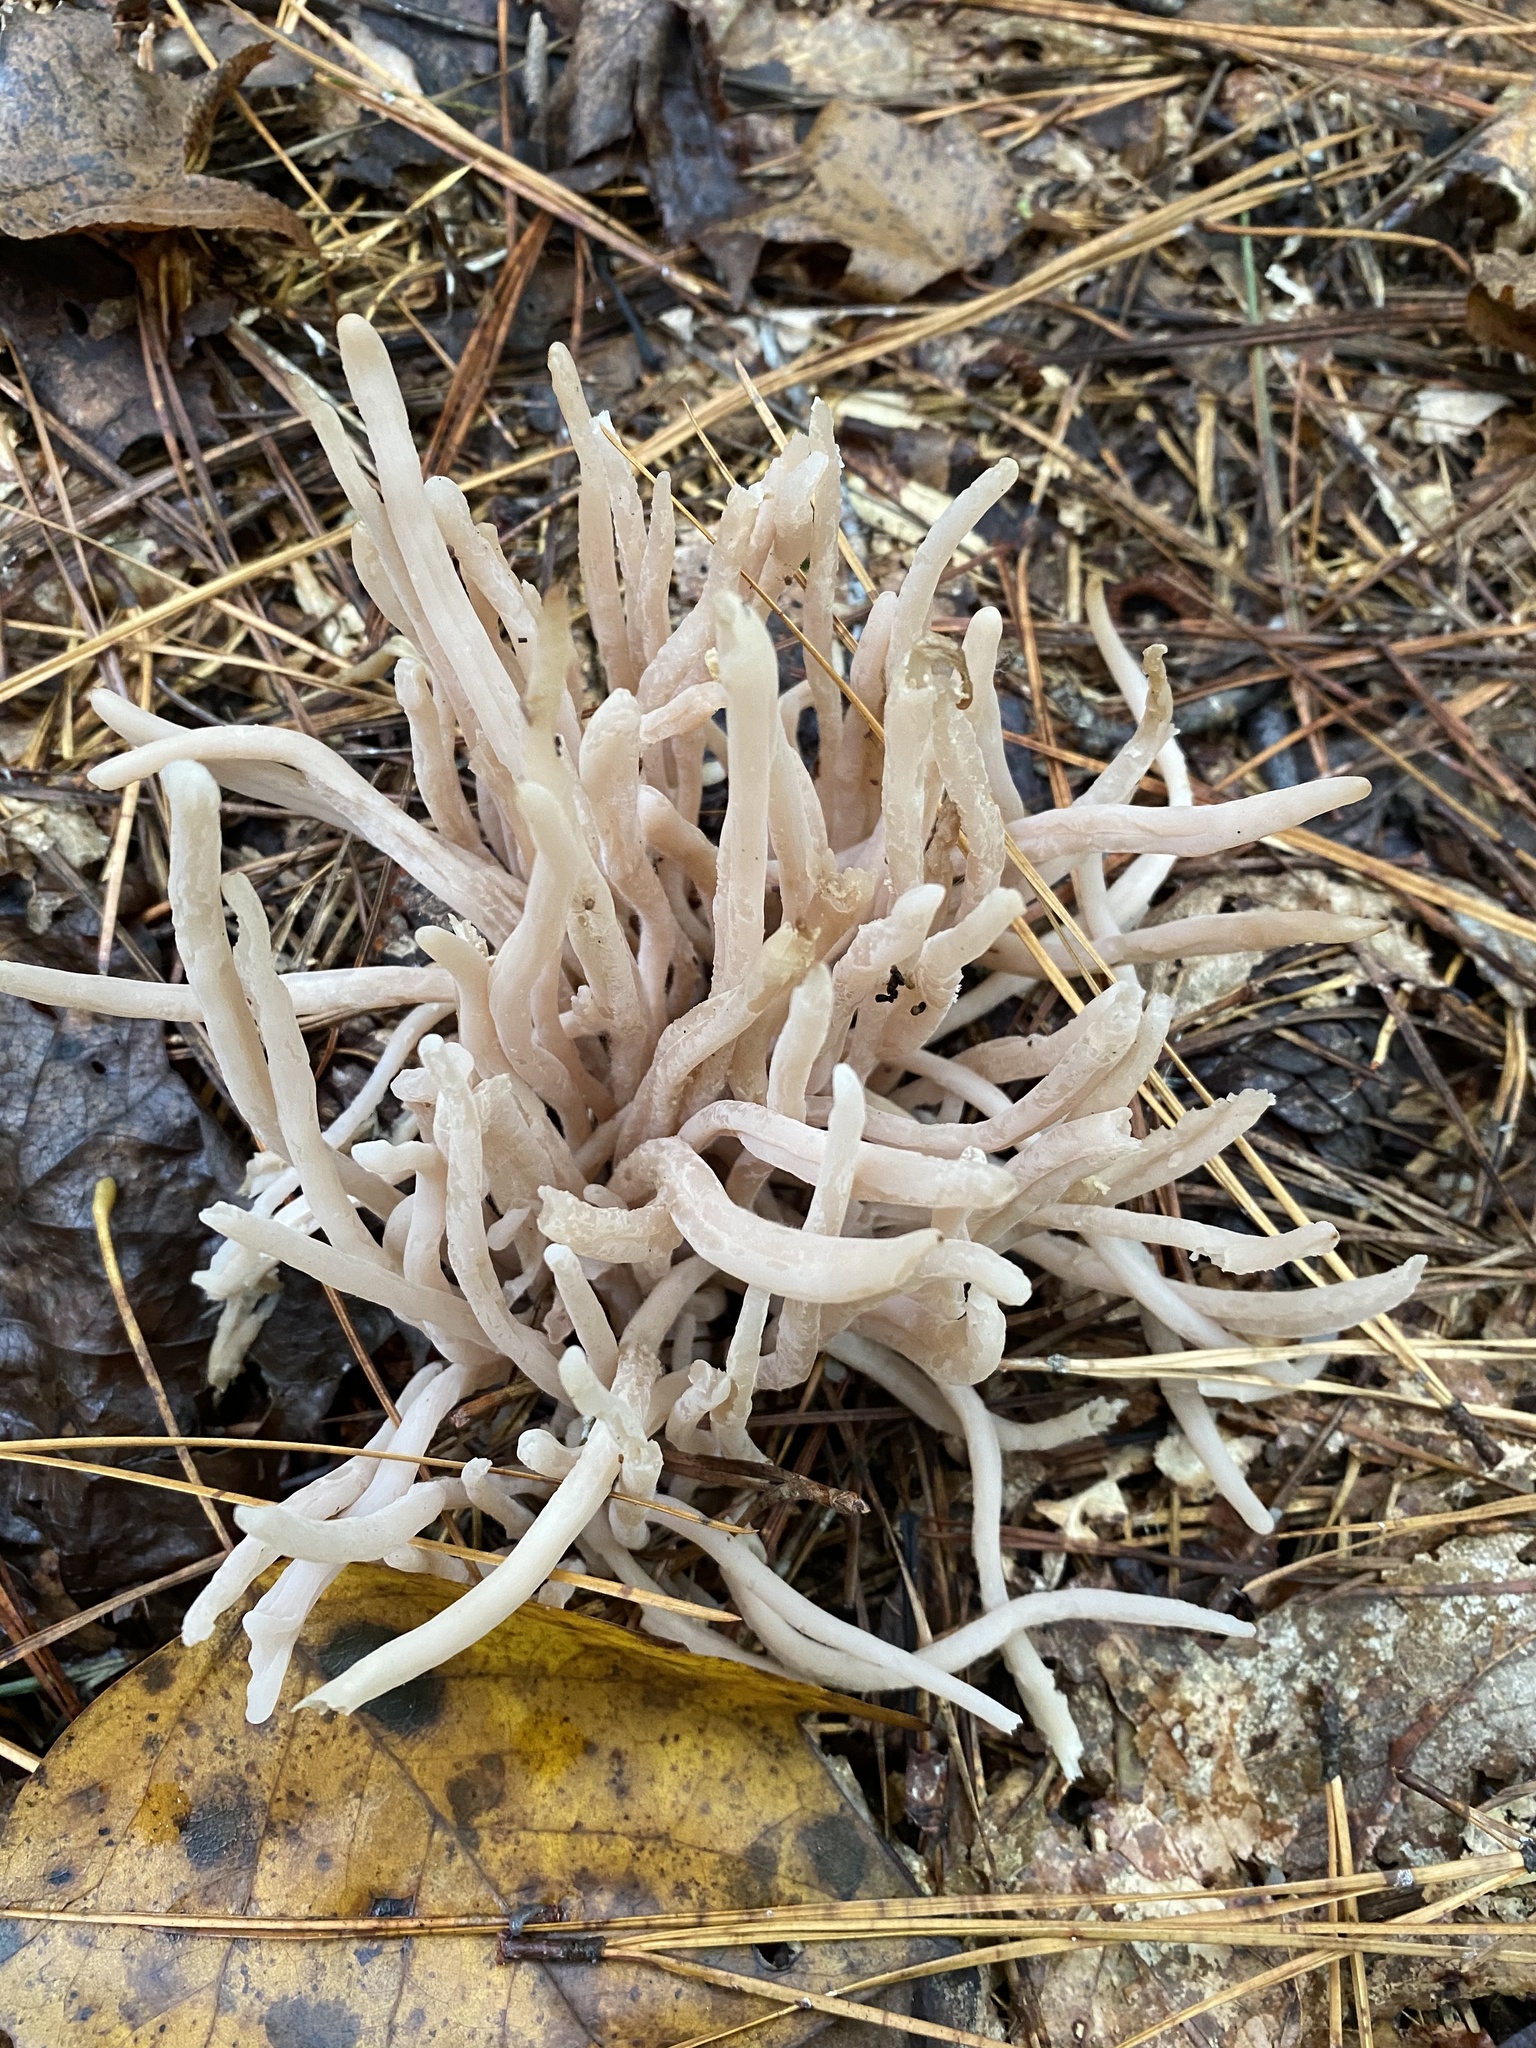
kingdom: Fungi
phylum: Basidiomycota
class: Agaricomycetes
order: Agaricales
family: Clavariaceae
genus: Clavaria
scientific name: Clavaria fumosa
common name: Smoky spindles
